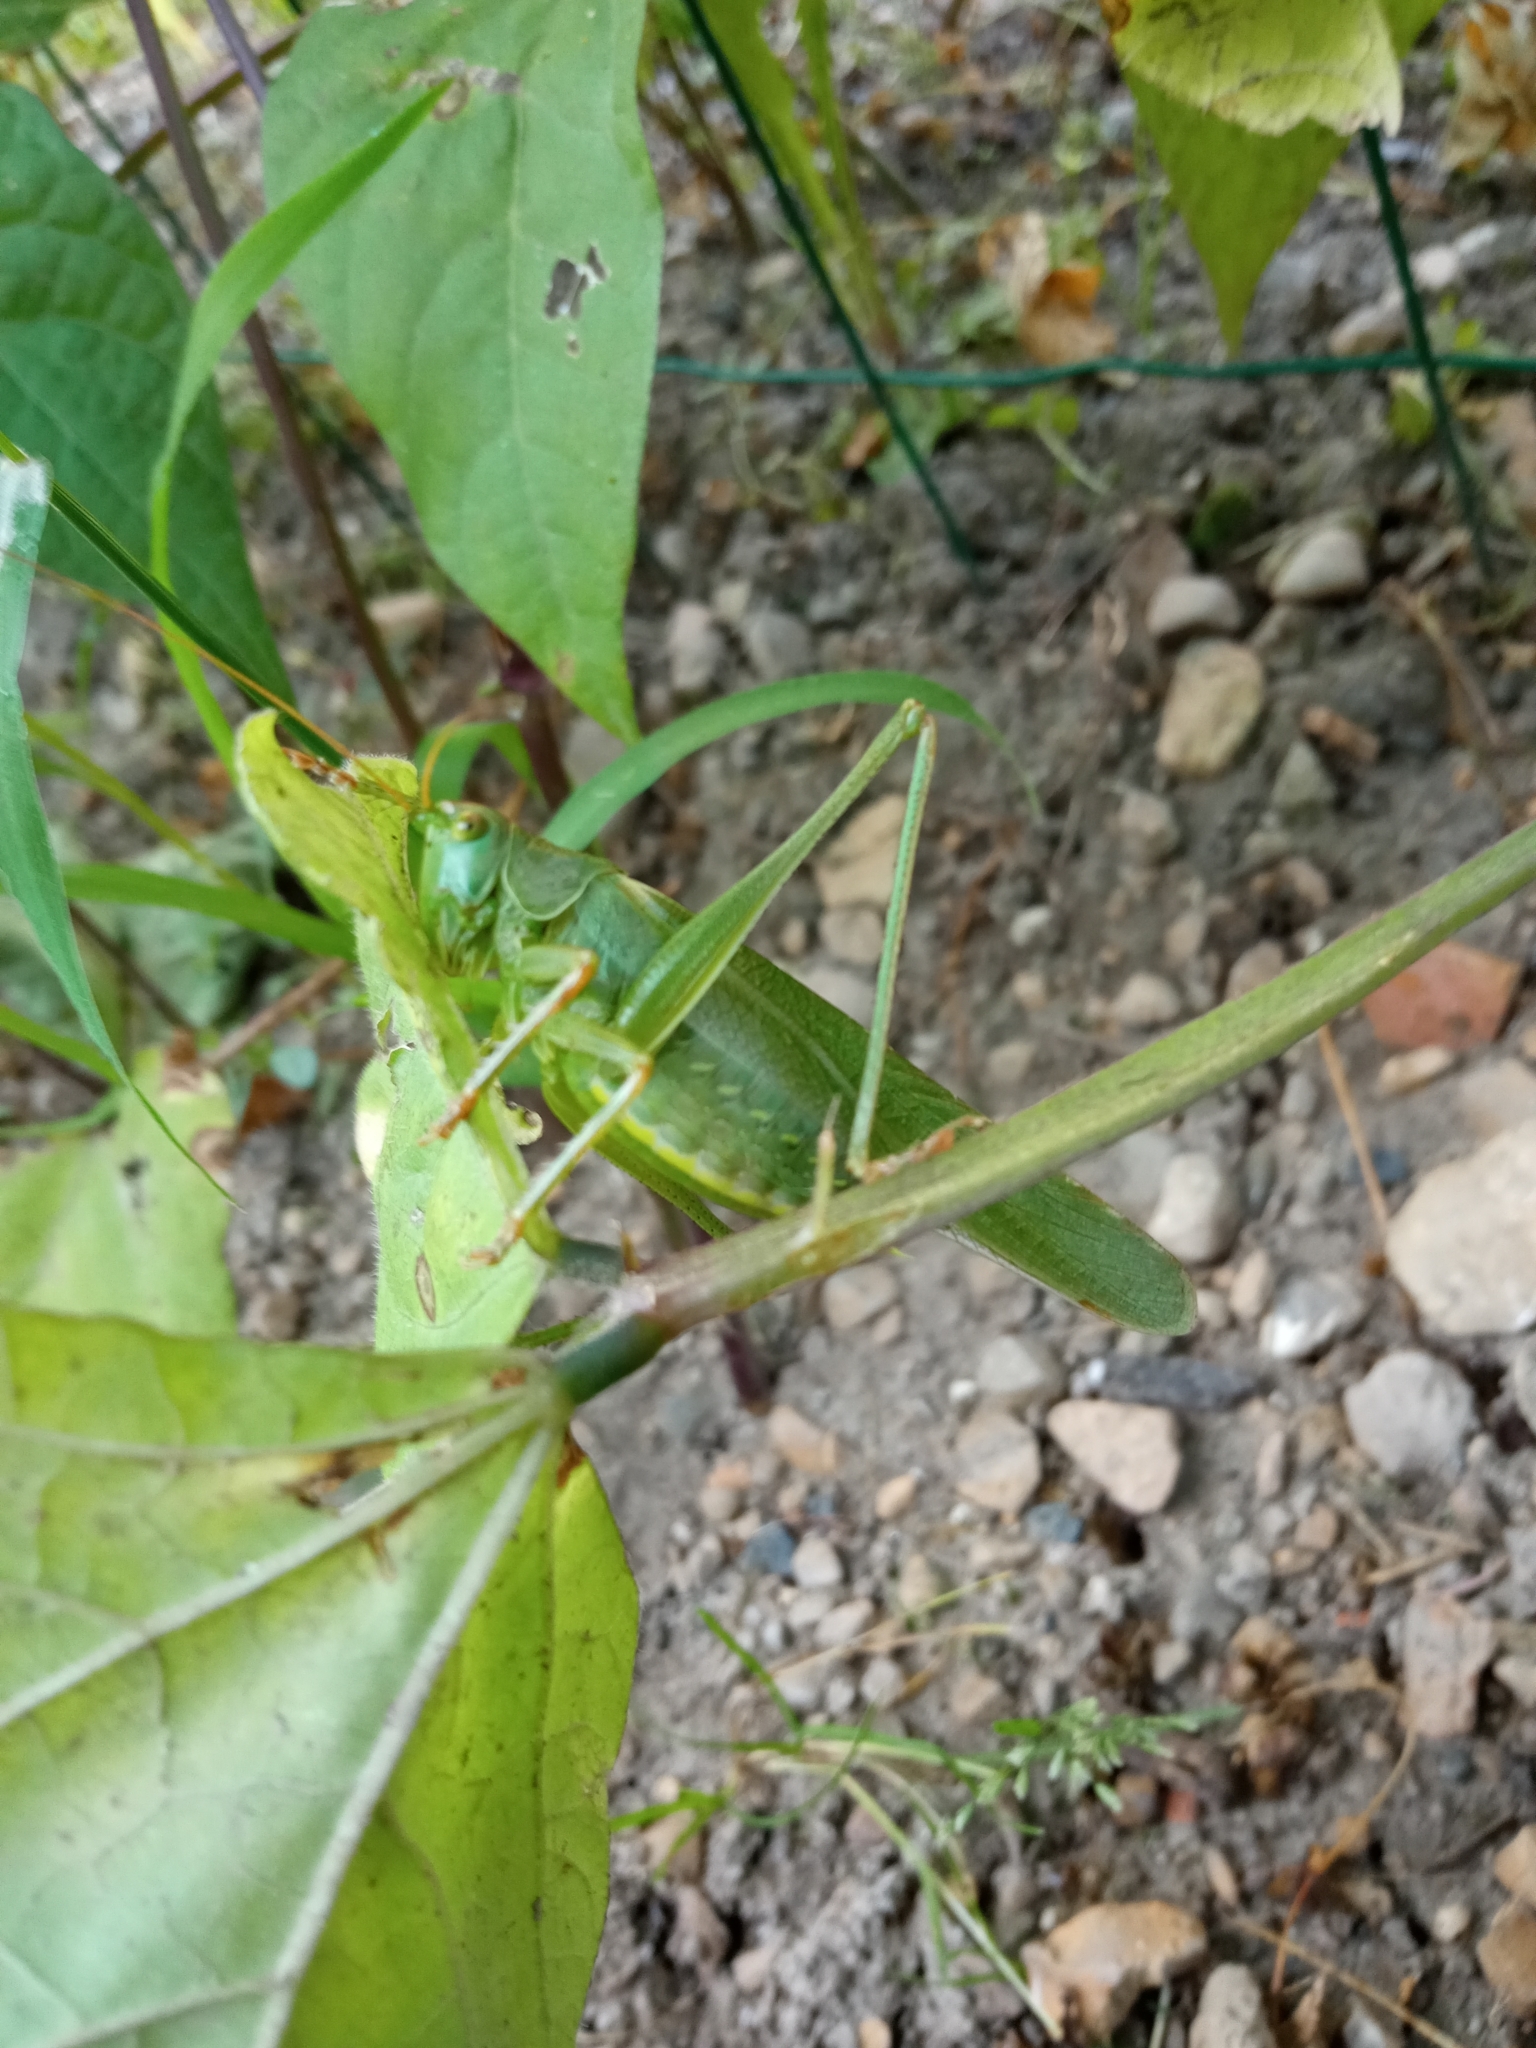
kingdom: Animalia
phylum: Arthropoda
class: Insecta
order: Orthoptera
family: Tettigoniidae
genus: Tettigonia
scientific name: Tettigonia viridissima
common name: Great green bush-cricket
